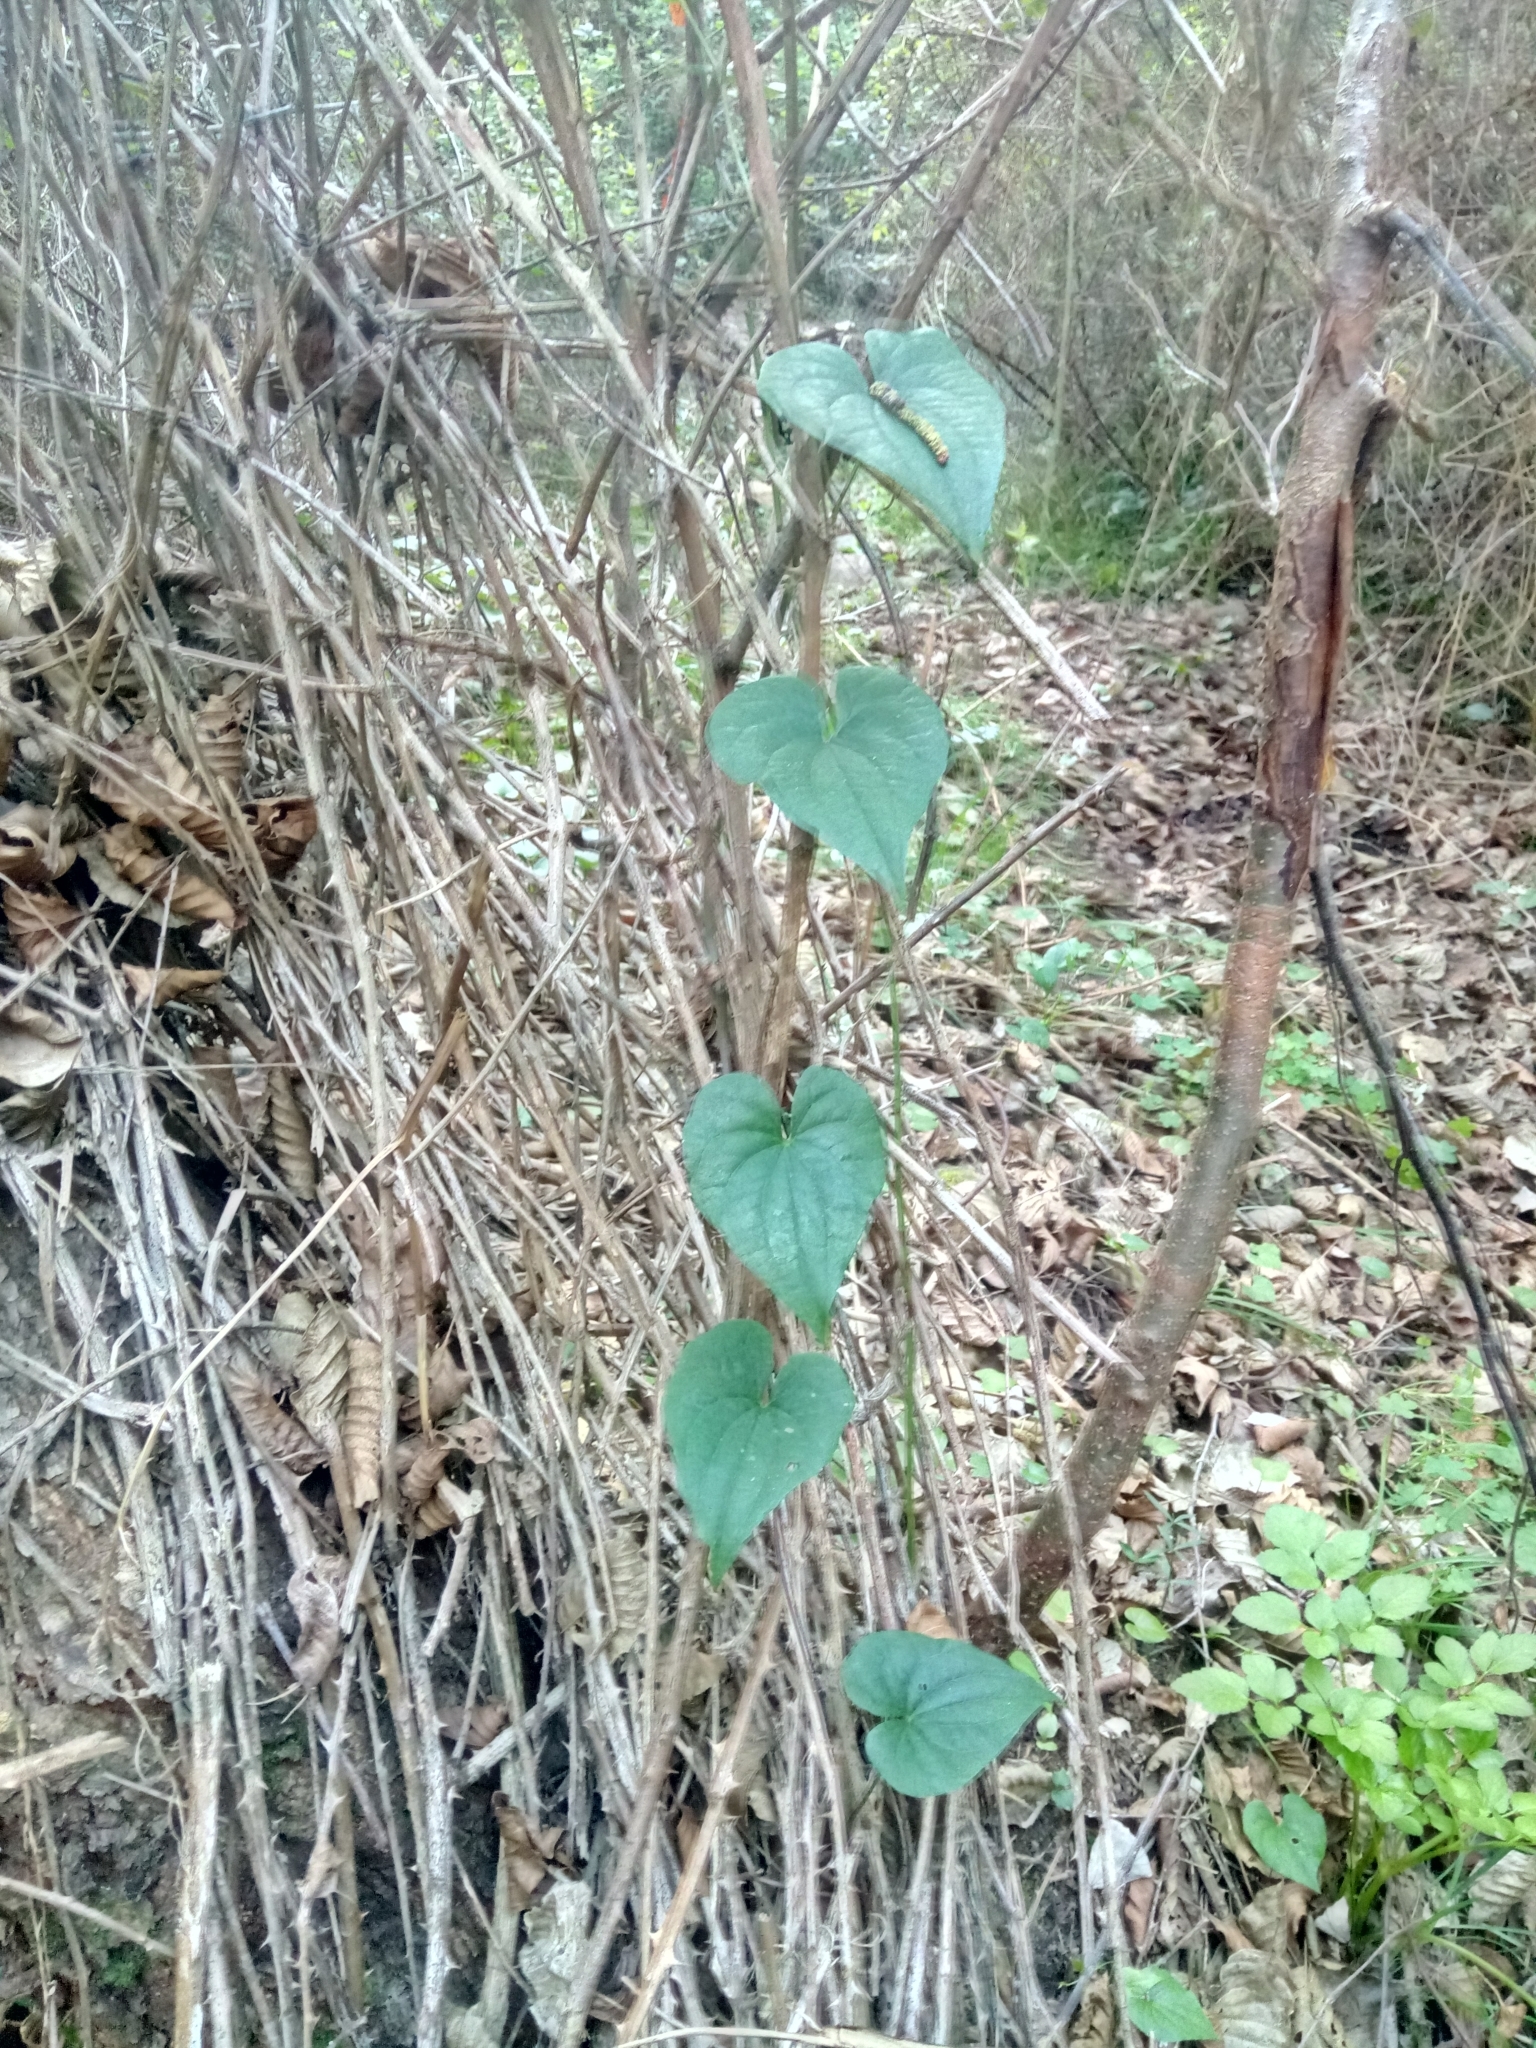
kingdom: Plantae
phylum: Tracheophyta
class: Liliopsida
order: Dioscoreales
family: Dioscoreaceae
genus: Dioscorea
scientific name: Dioscorea communis
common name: Black-bindweed
